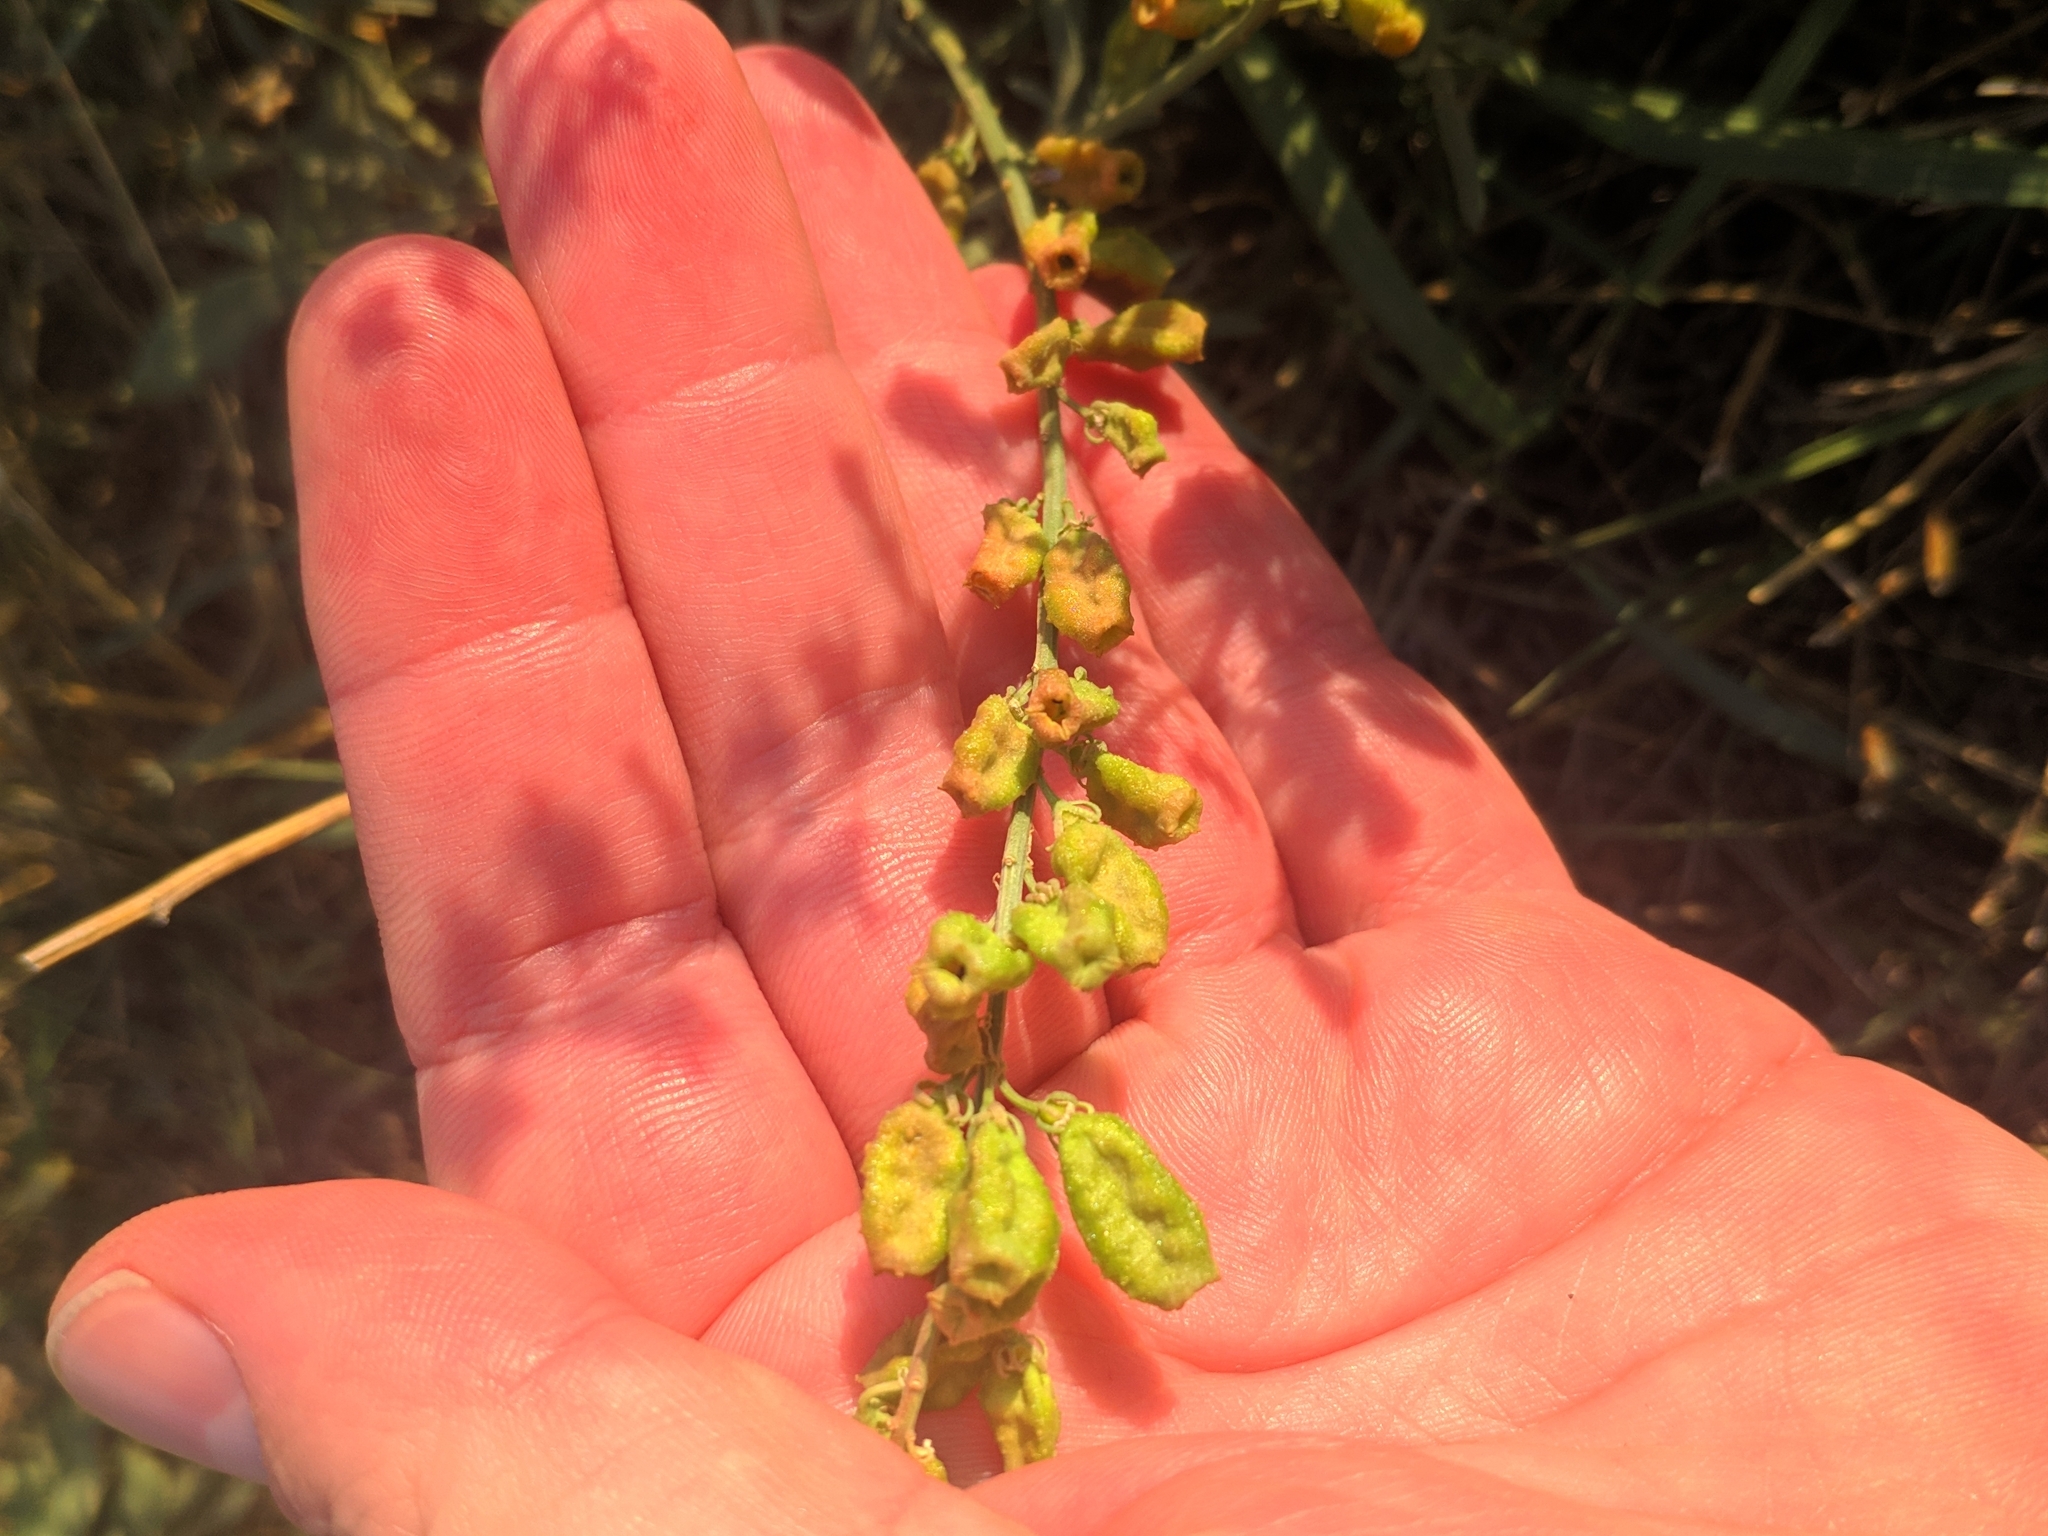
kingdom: Plantae
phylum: Tracheophyta
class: Magnoliopsida
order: Brassicales
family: Resedaceae
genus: Reseda
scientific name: Reseda lutea
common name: Wild mignonette
